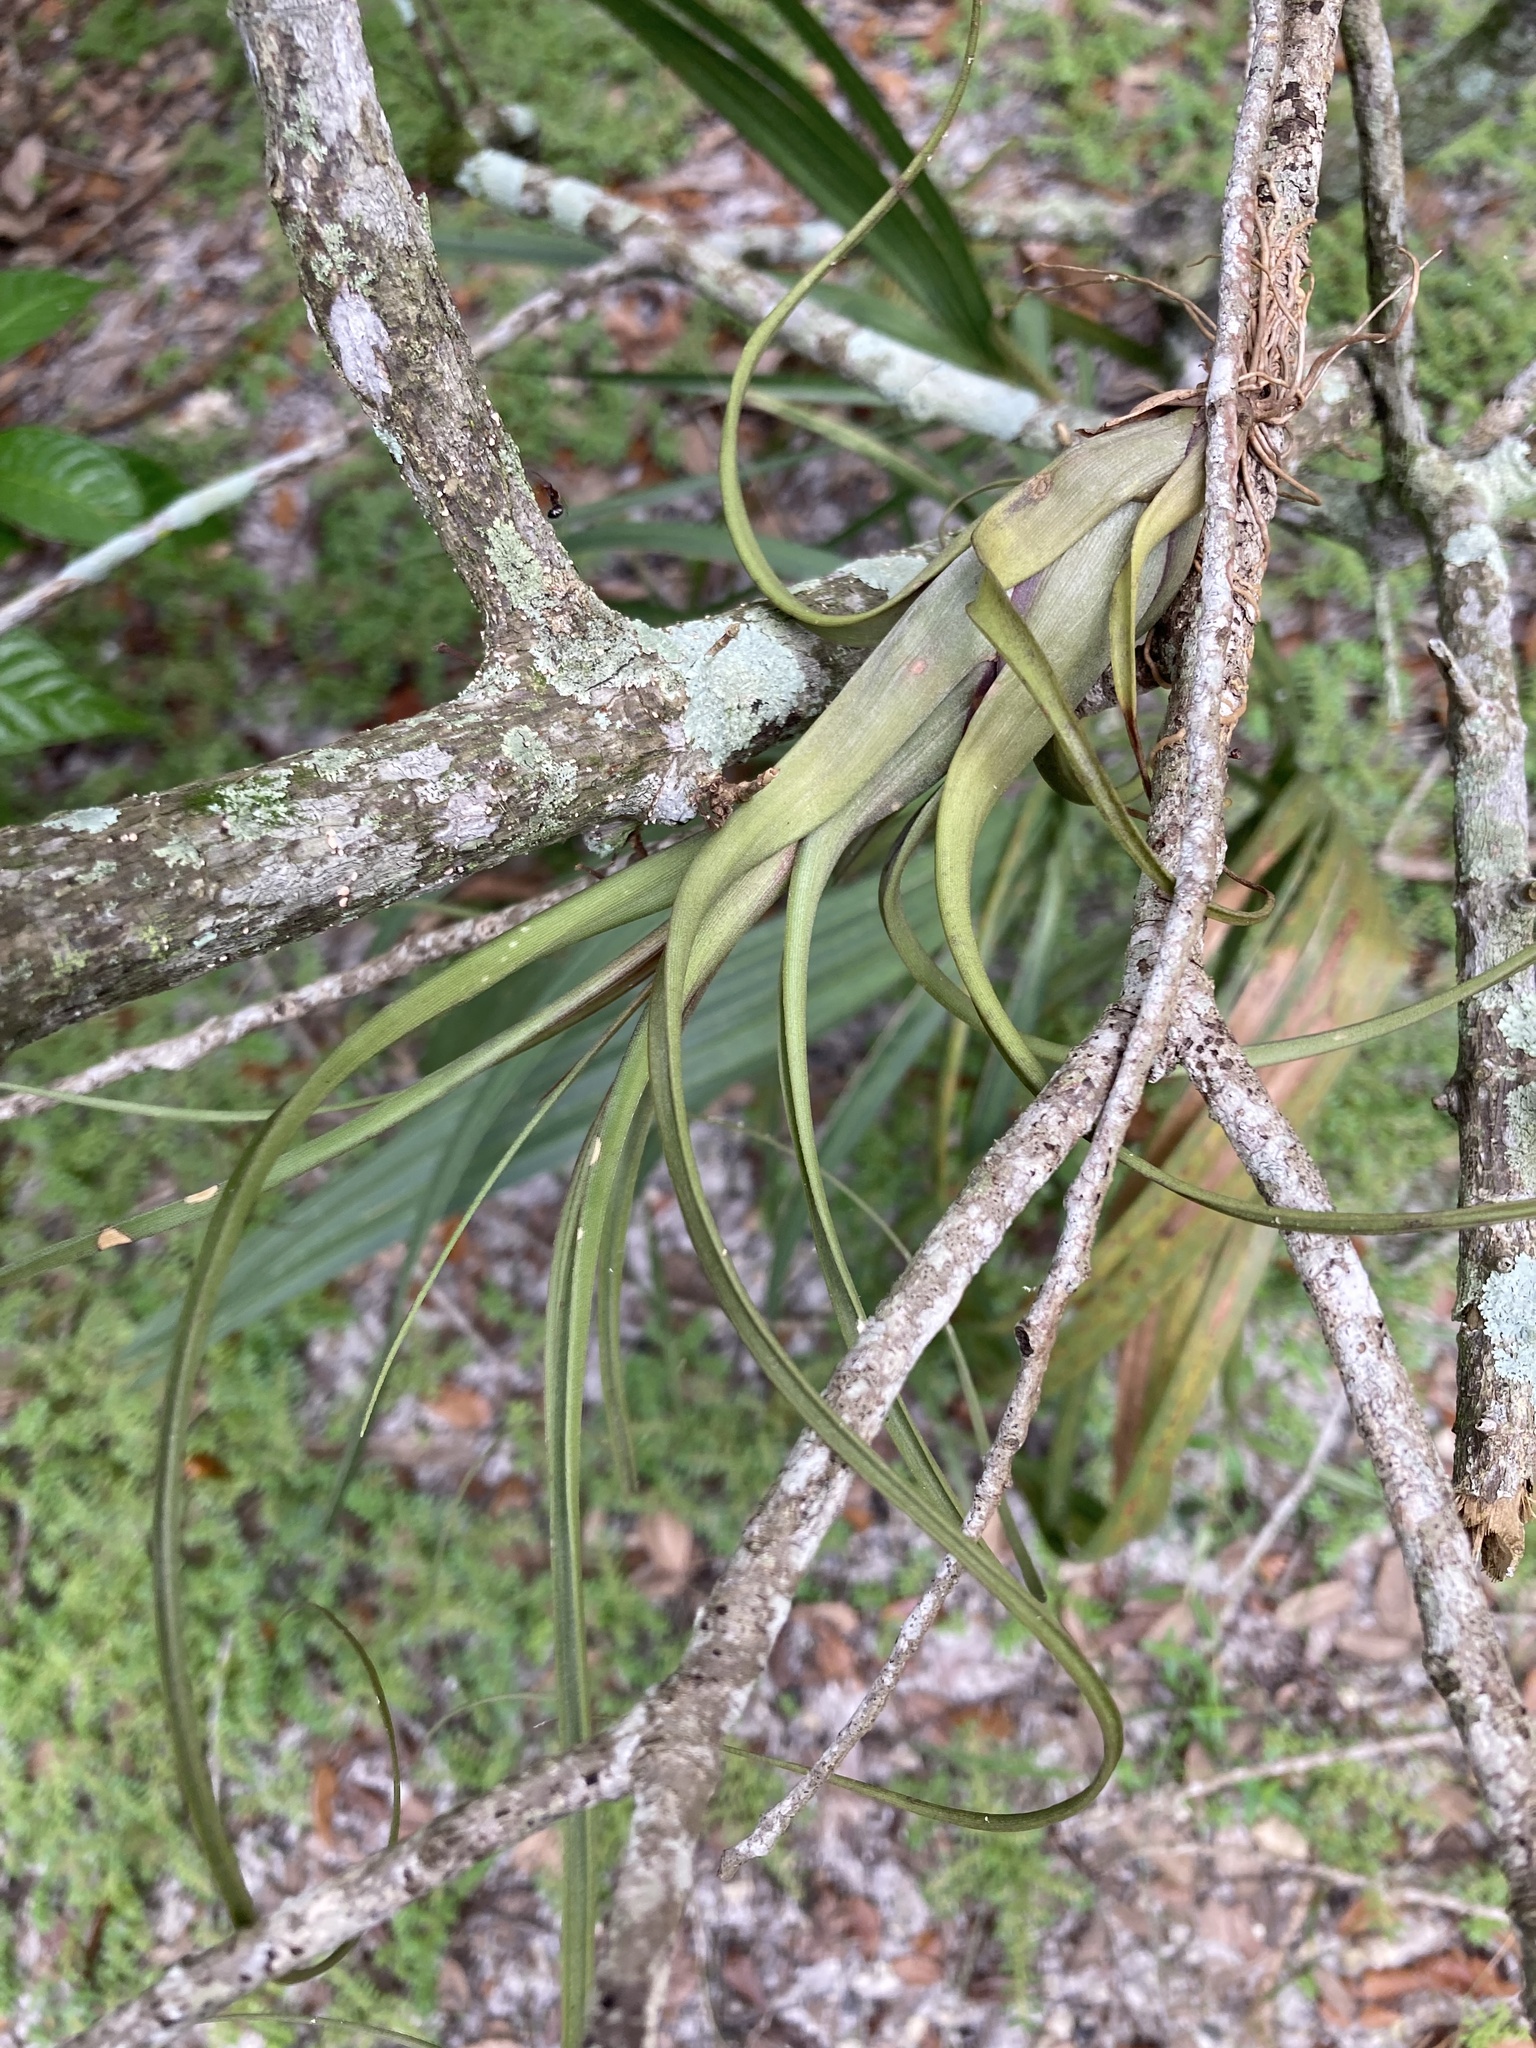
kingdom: Plantae
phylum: Tracheophyta
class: Liliopsida
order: Poales
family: Bromeliaceae
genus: Tillandsia
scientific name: Tillandsia balbisiana
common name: Northern needleleaf
